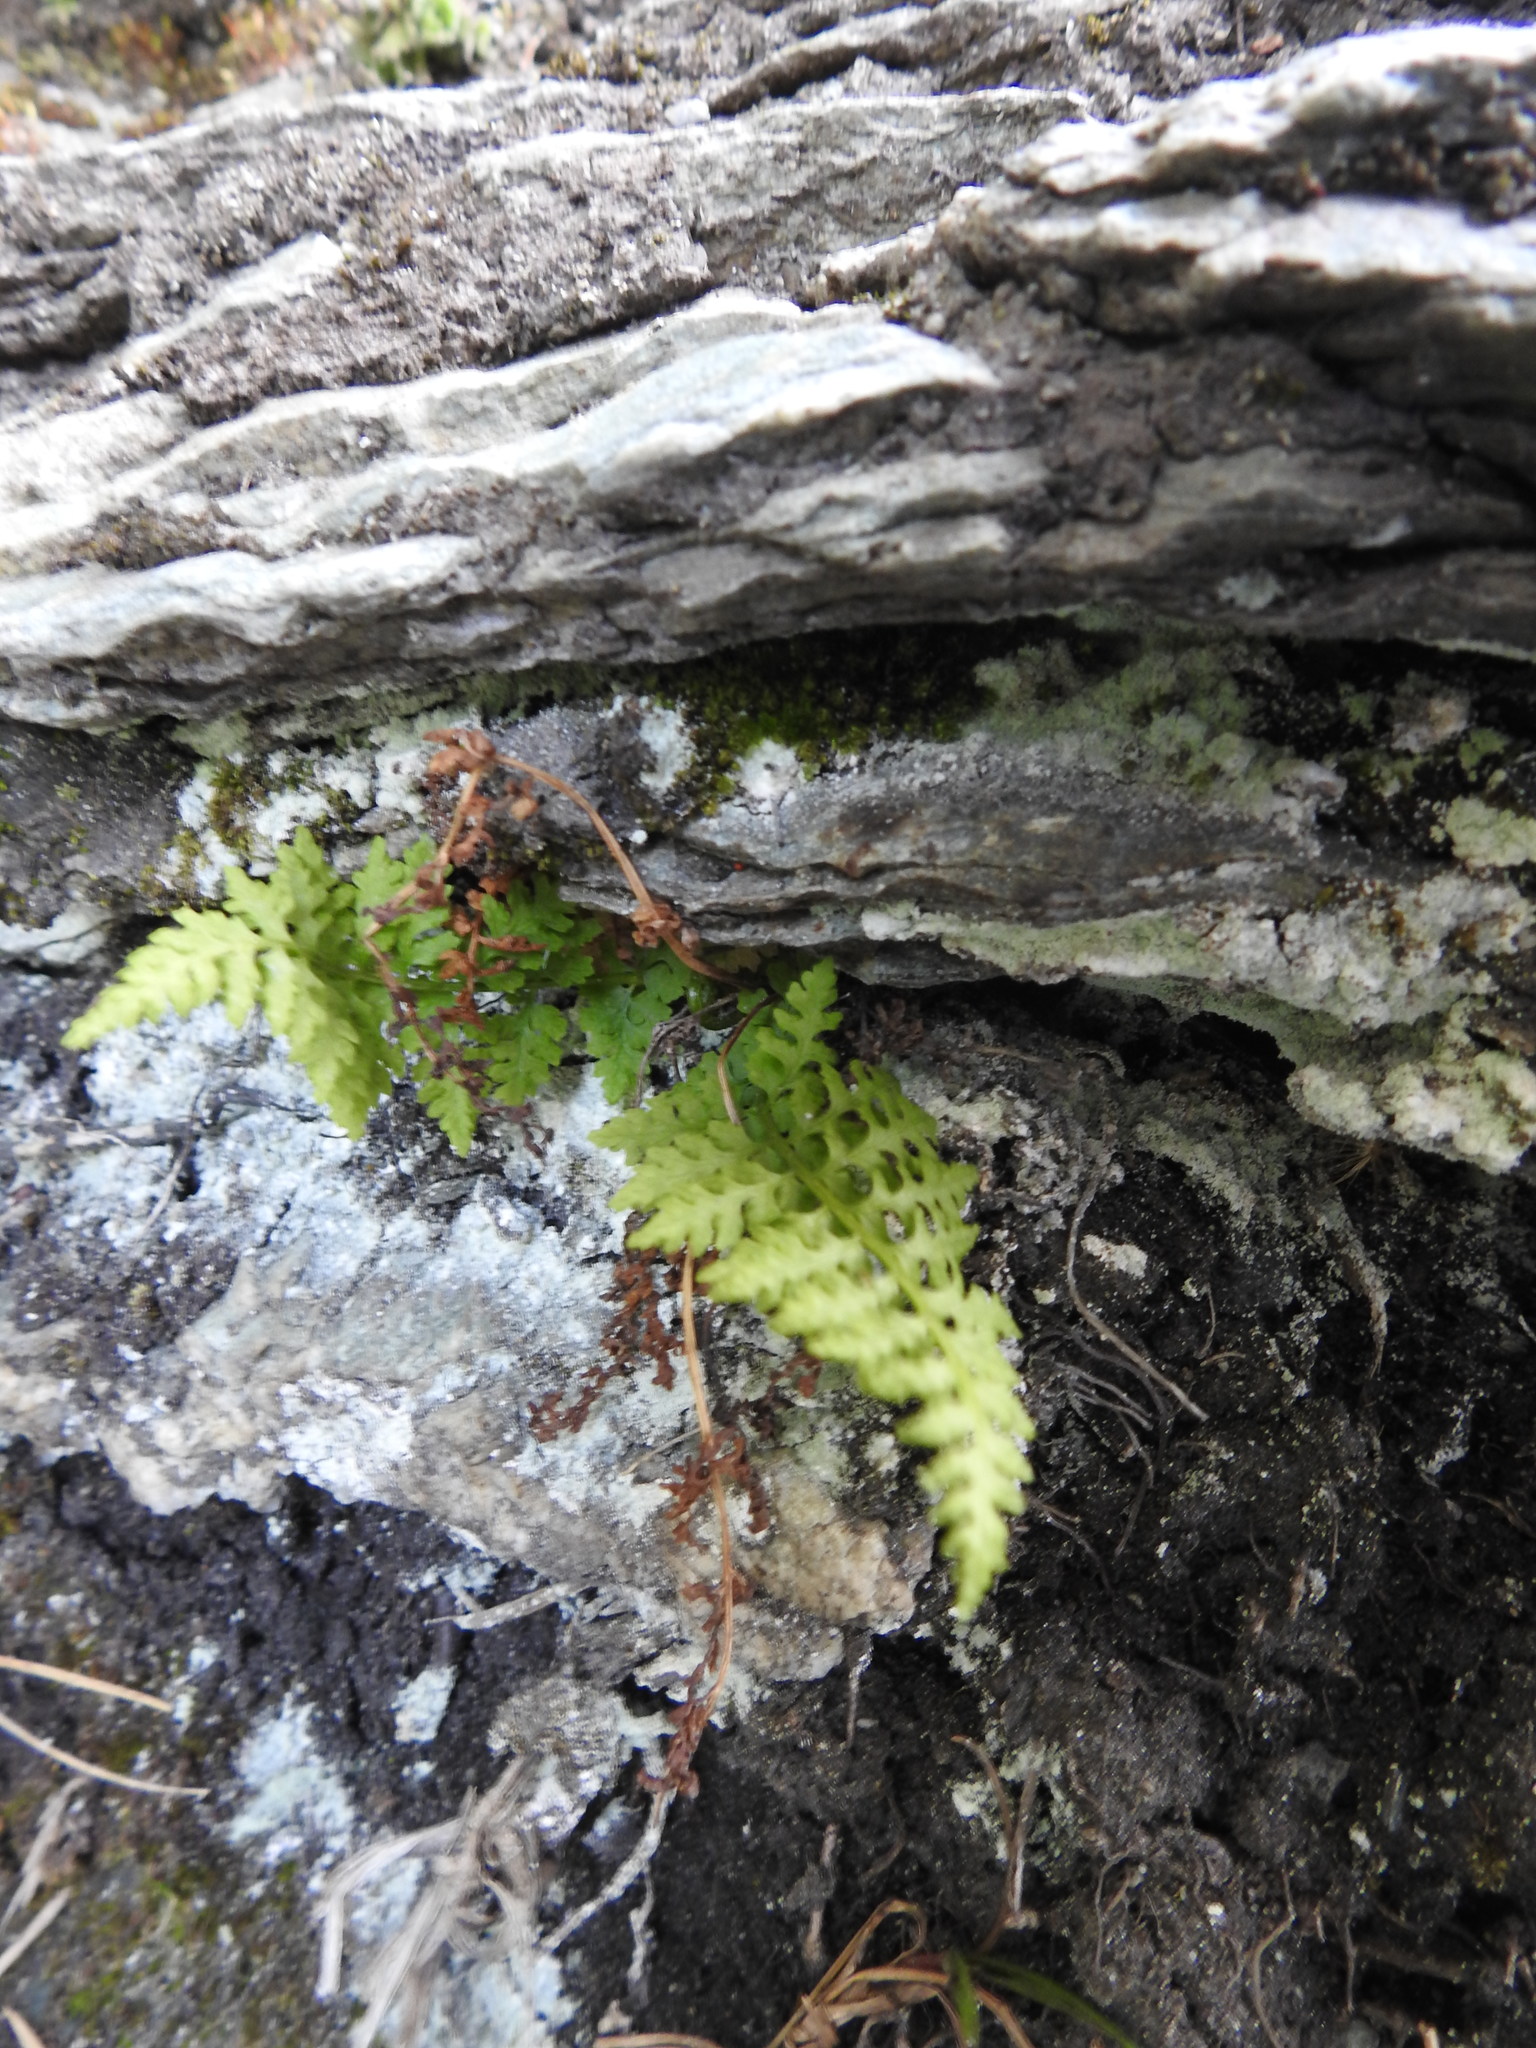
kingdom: Plantae
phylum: Tracheophyta
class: Polypodiopsida
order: Polypodiales
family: Cystopteridaceae
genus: Cystopteris
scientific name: Cystopteris fragilis
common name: Brittle bladder fern
